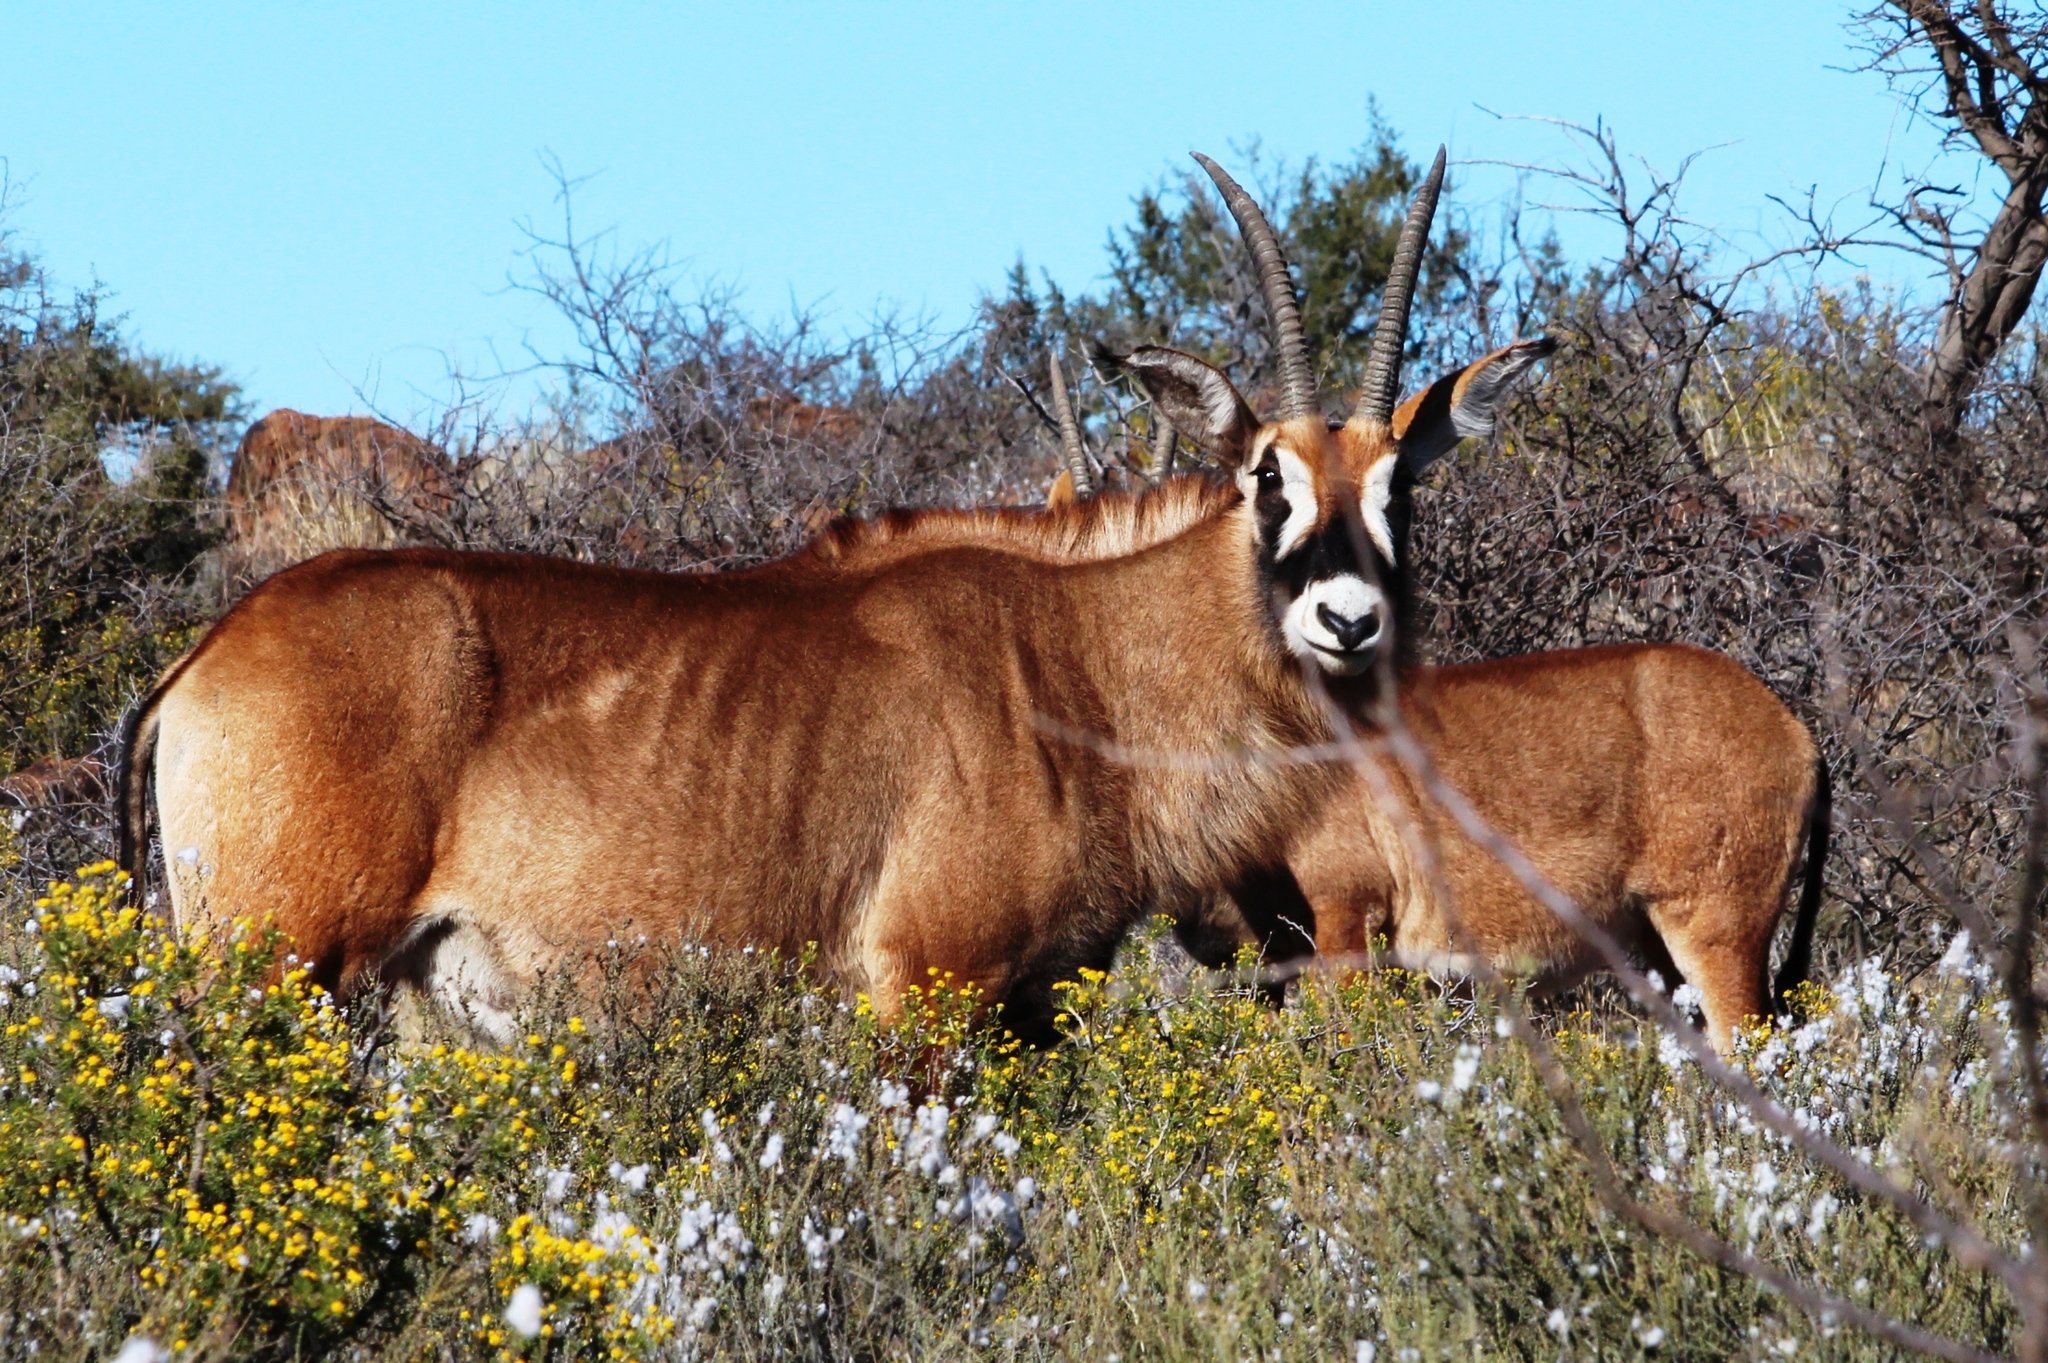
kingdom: Animalia
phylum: Chordata
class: Mammalia
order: Artiodactyla
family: Bovidae
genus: Hippotragus
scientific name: Hippotragus equinus
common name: Roan antelope
